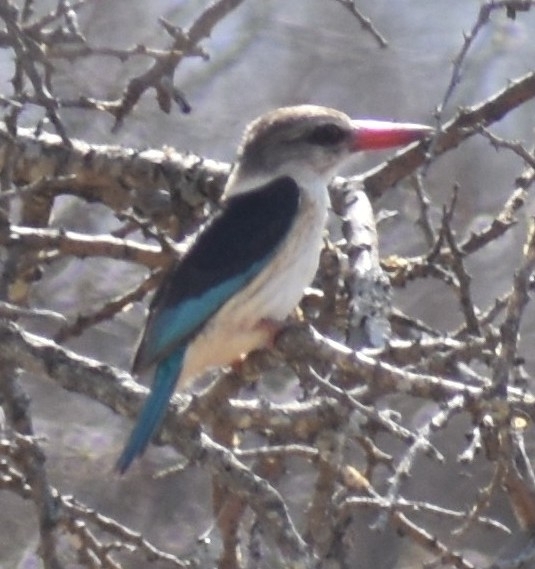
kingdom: Animalia
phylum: Chordata
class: Aves
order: Coraciiformes
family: Alcedinidae
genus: Halcyon
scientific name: Halcyon albiventris
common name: Brown-hooded kingfisher
